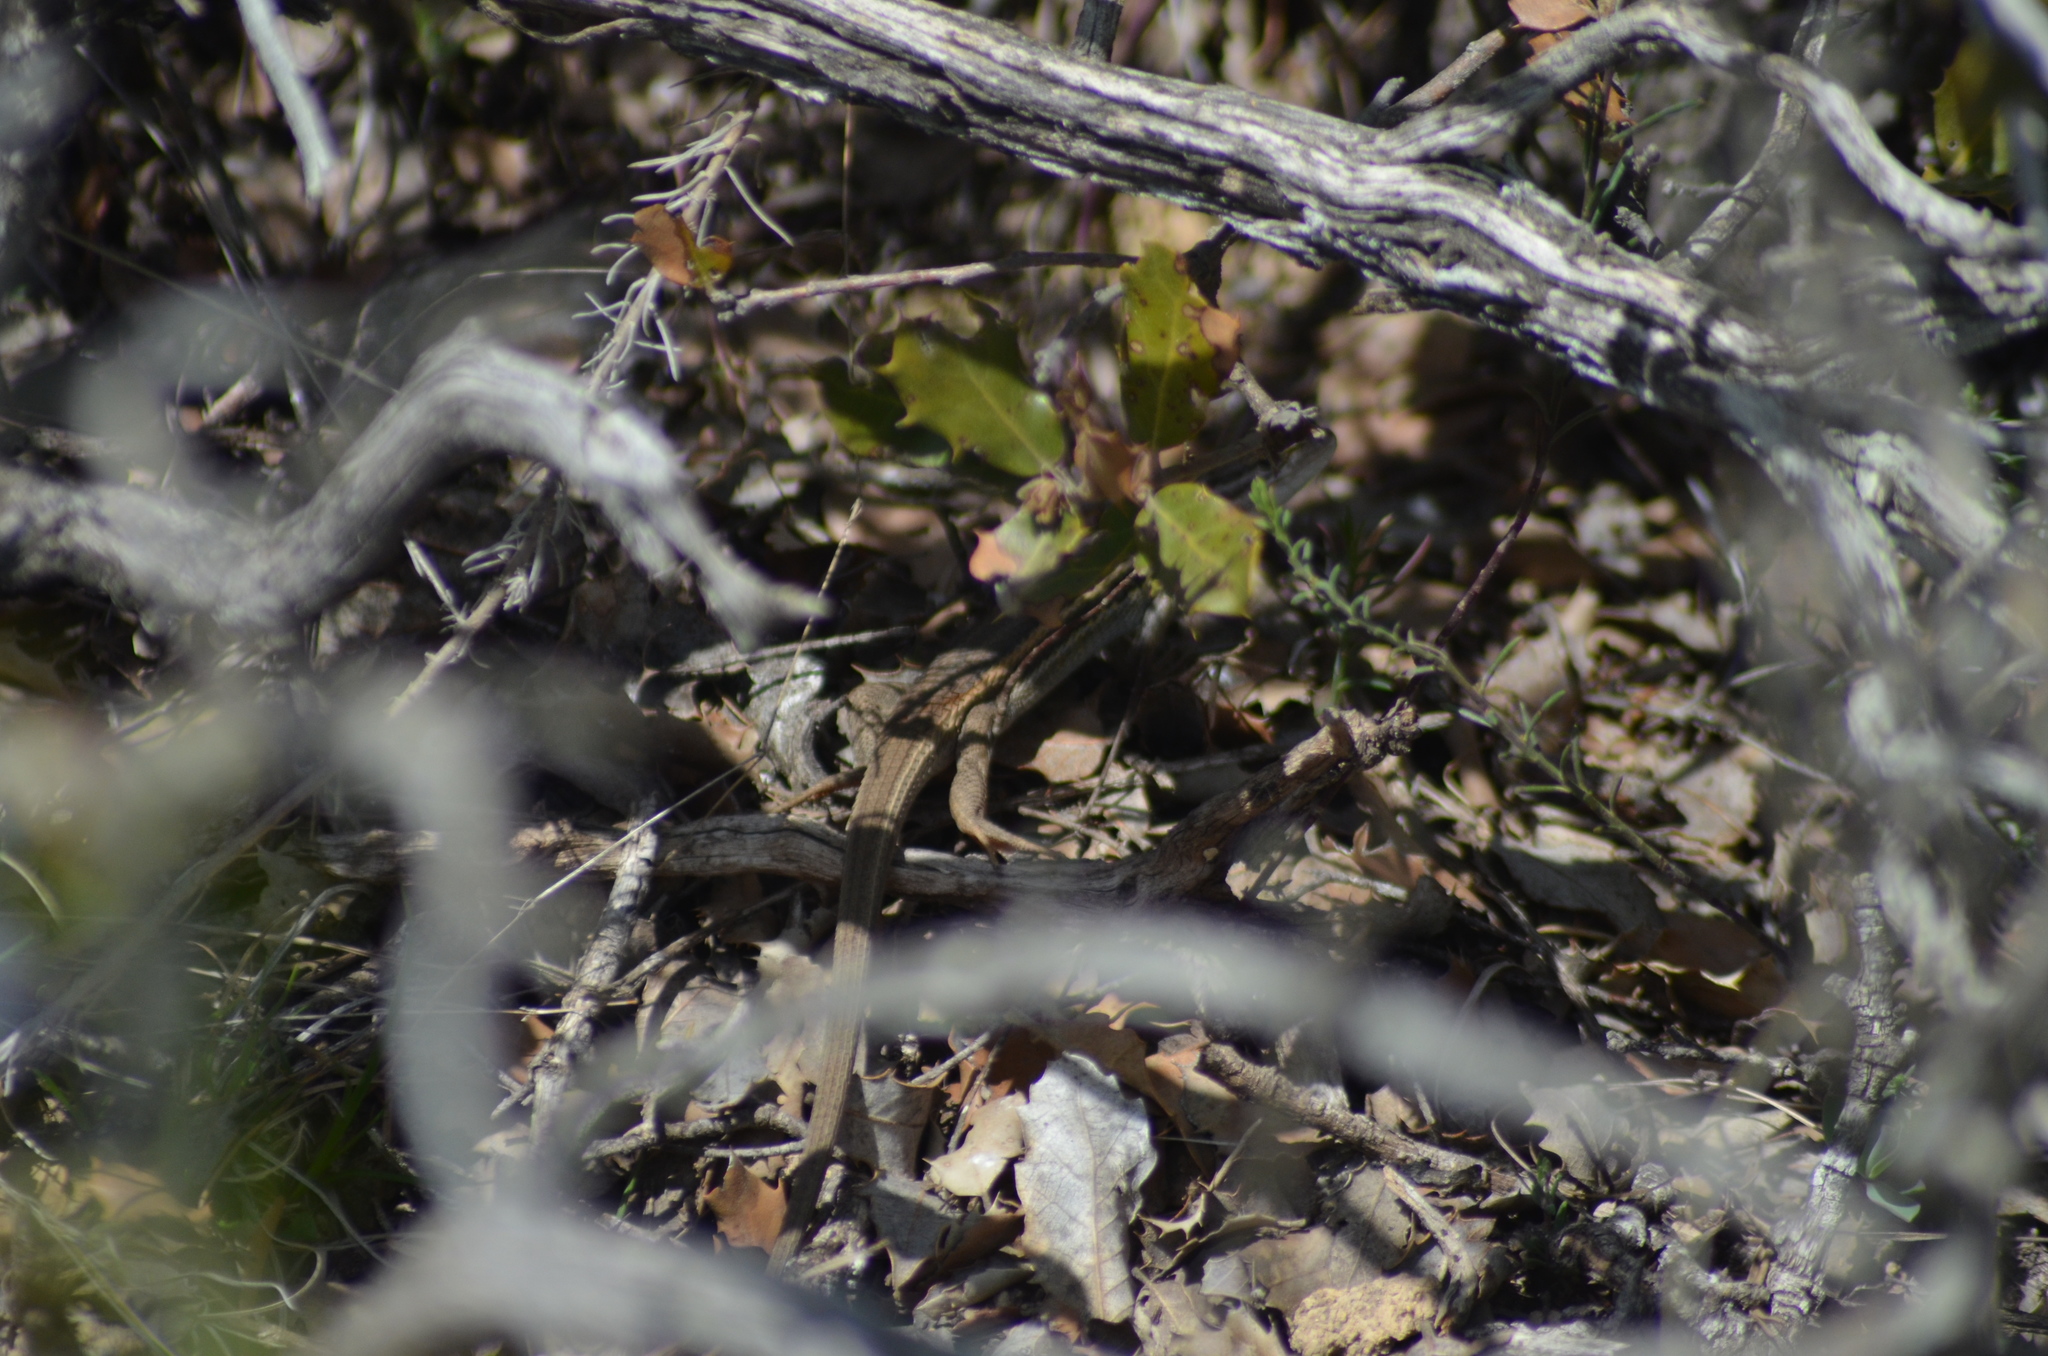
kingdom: Animalia
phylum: Chordata
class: Squamata
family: Lacertidae
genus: Psammodromus
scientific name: Psammodromus algirus
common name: Algerian psammodromus
